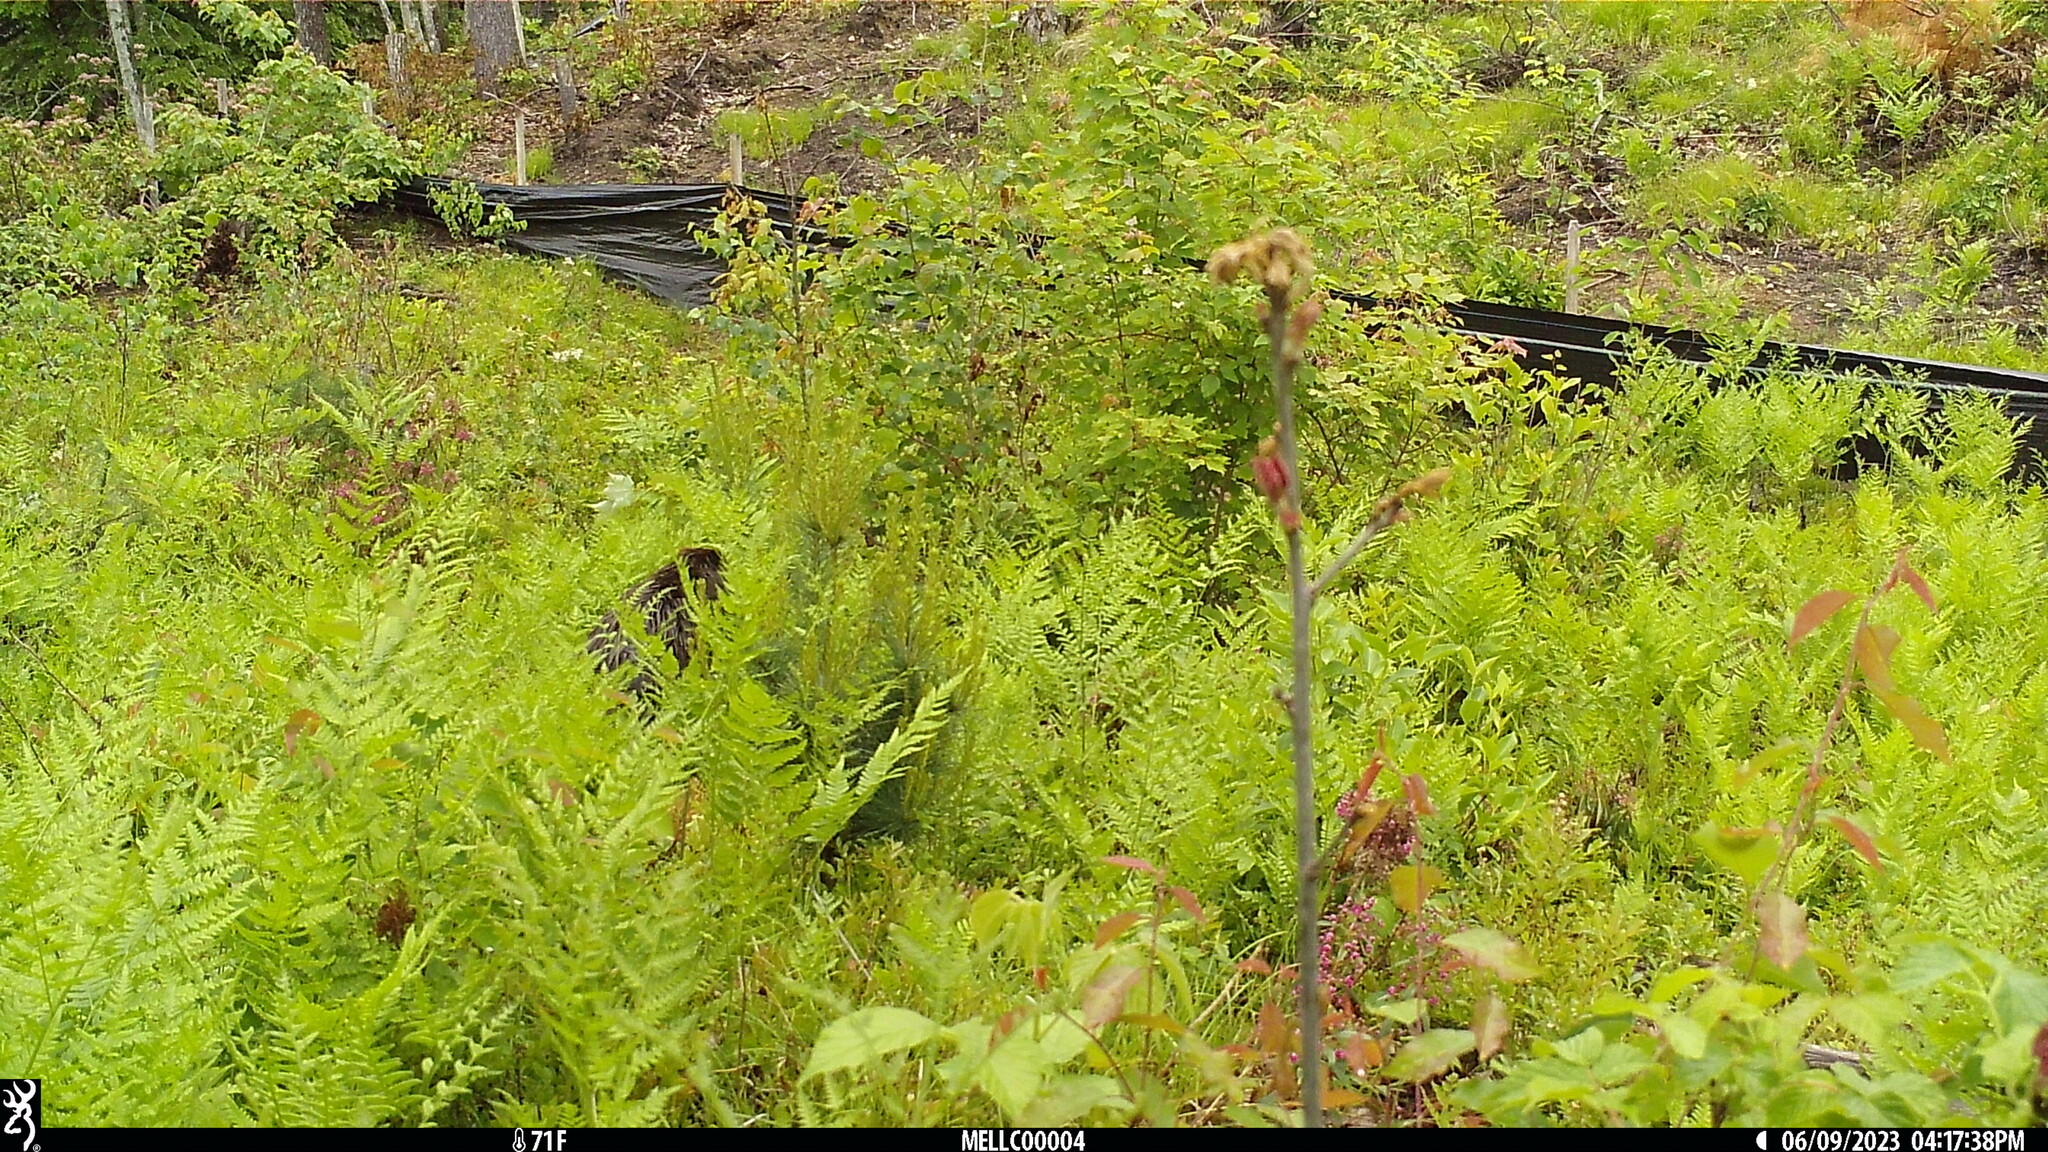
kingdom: Animalia
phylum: Chordata
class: Mammalia
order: Rodentia
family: Castoridae
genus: Castor
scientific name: Castor canadensis
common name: American beaver
